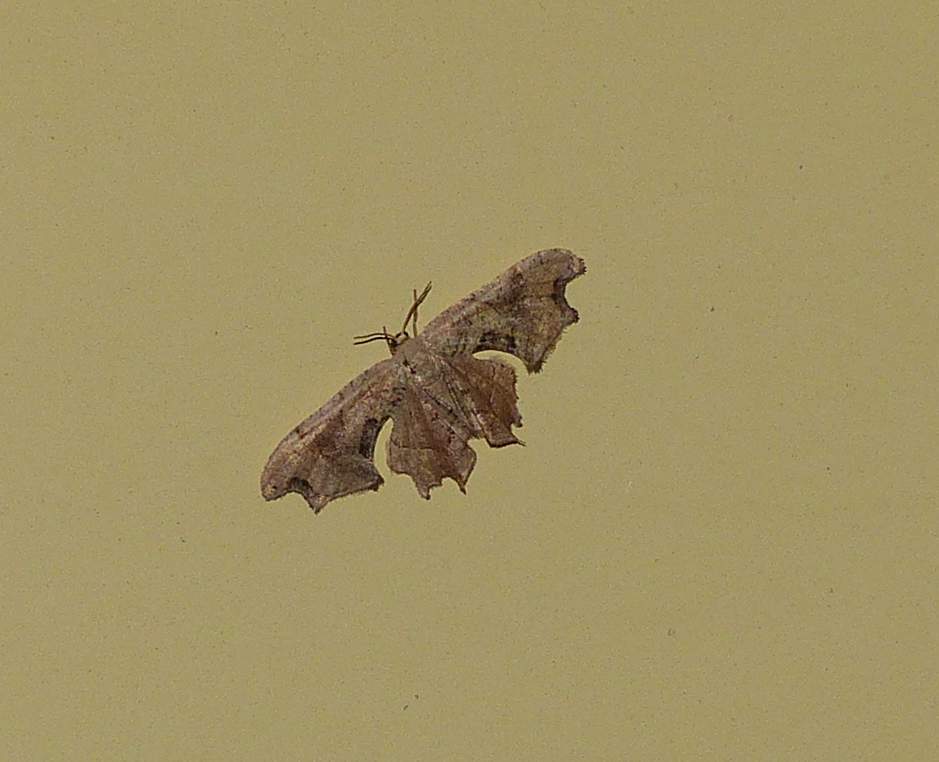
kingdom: Animalia
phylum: Arthropoda
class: Insecta
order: Lepidoptera
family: Uraniidae
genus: Epiplema
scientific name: Epiplema Calledapteryx dryopterata
